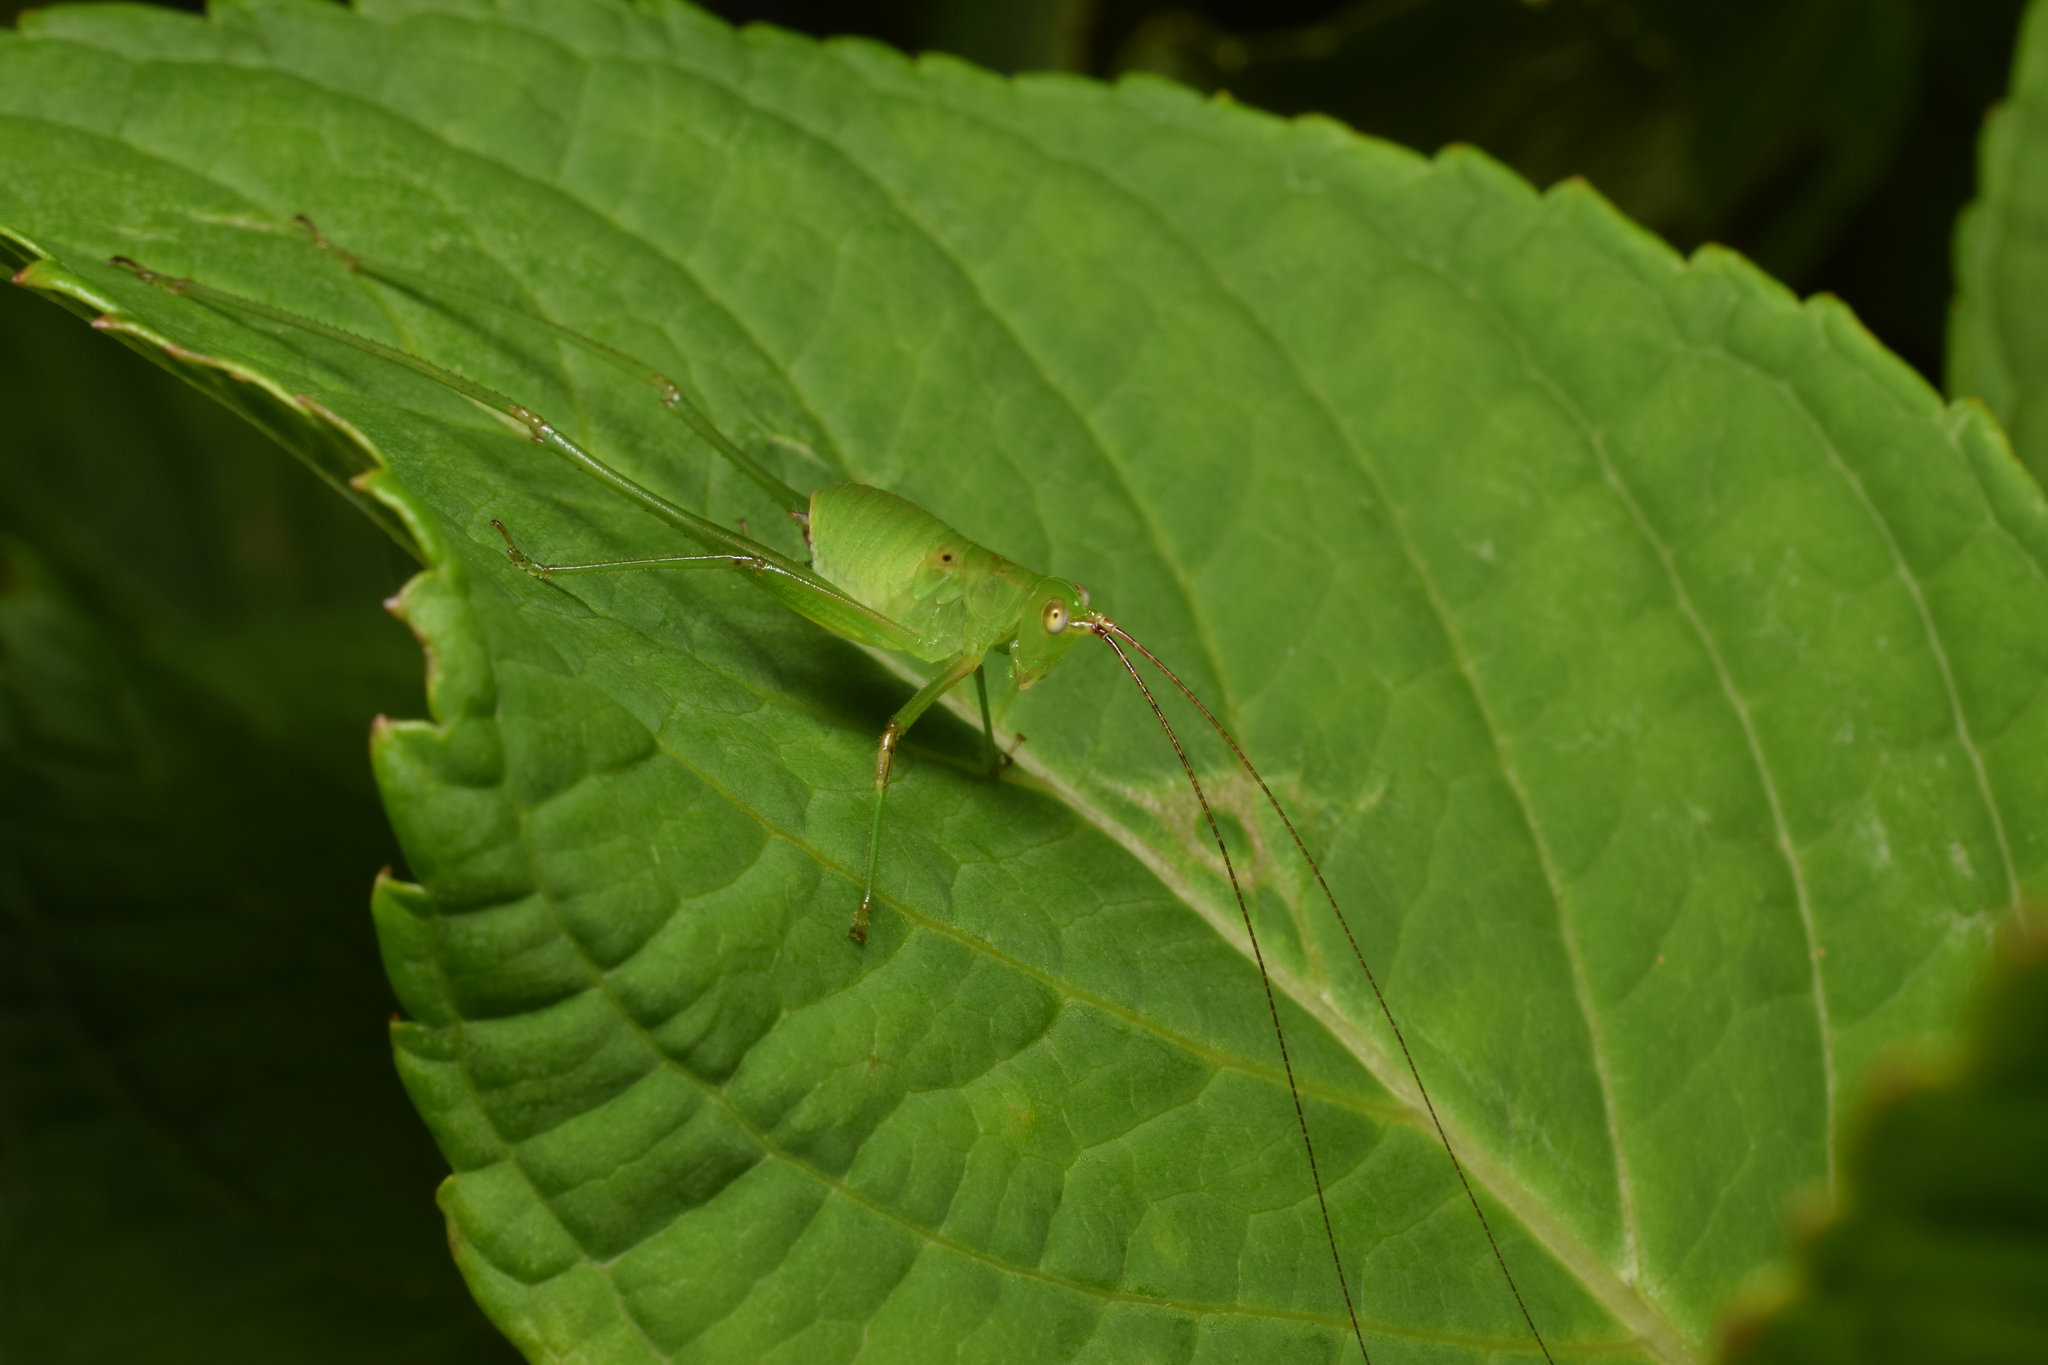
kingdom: Animalia
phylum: Arthropoda
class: Insecta
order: Orthoptera
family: Tettigoniidae
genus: Holochlora
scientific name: Holochlora japonica
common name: Japanese broadwinged katydid
